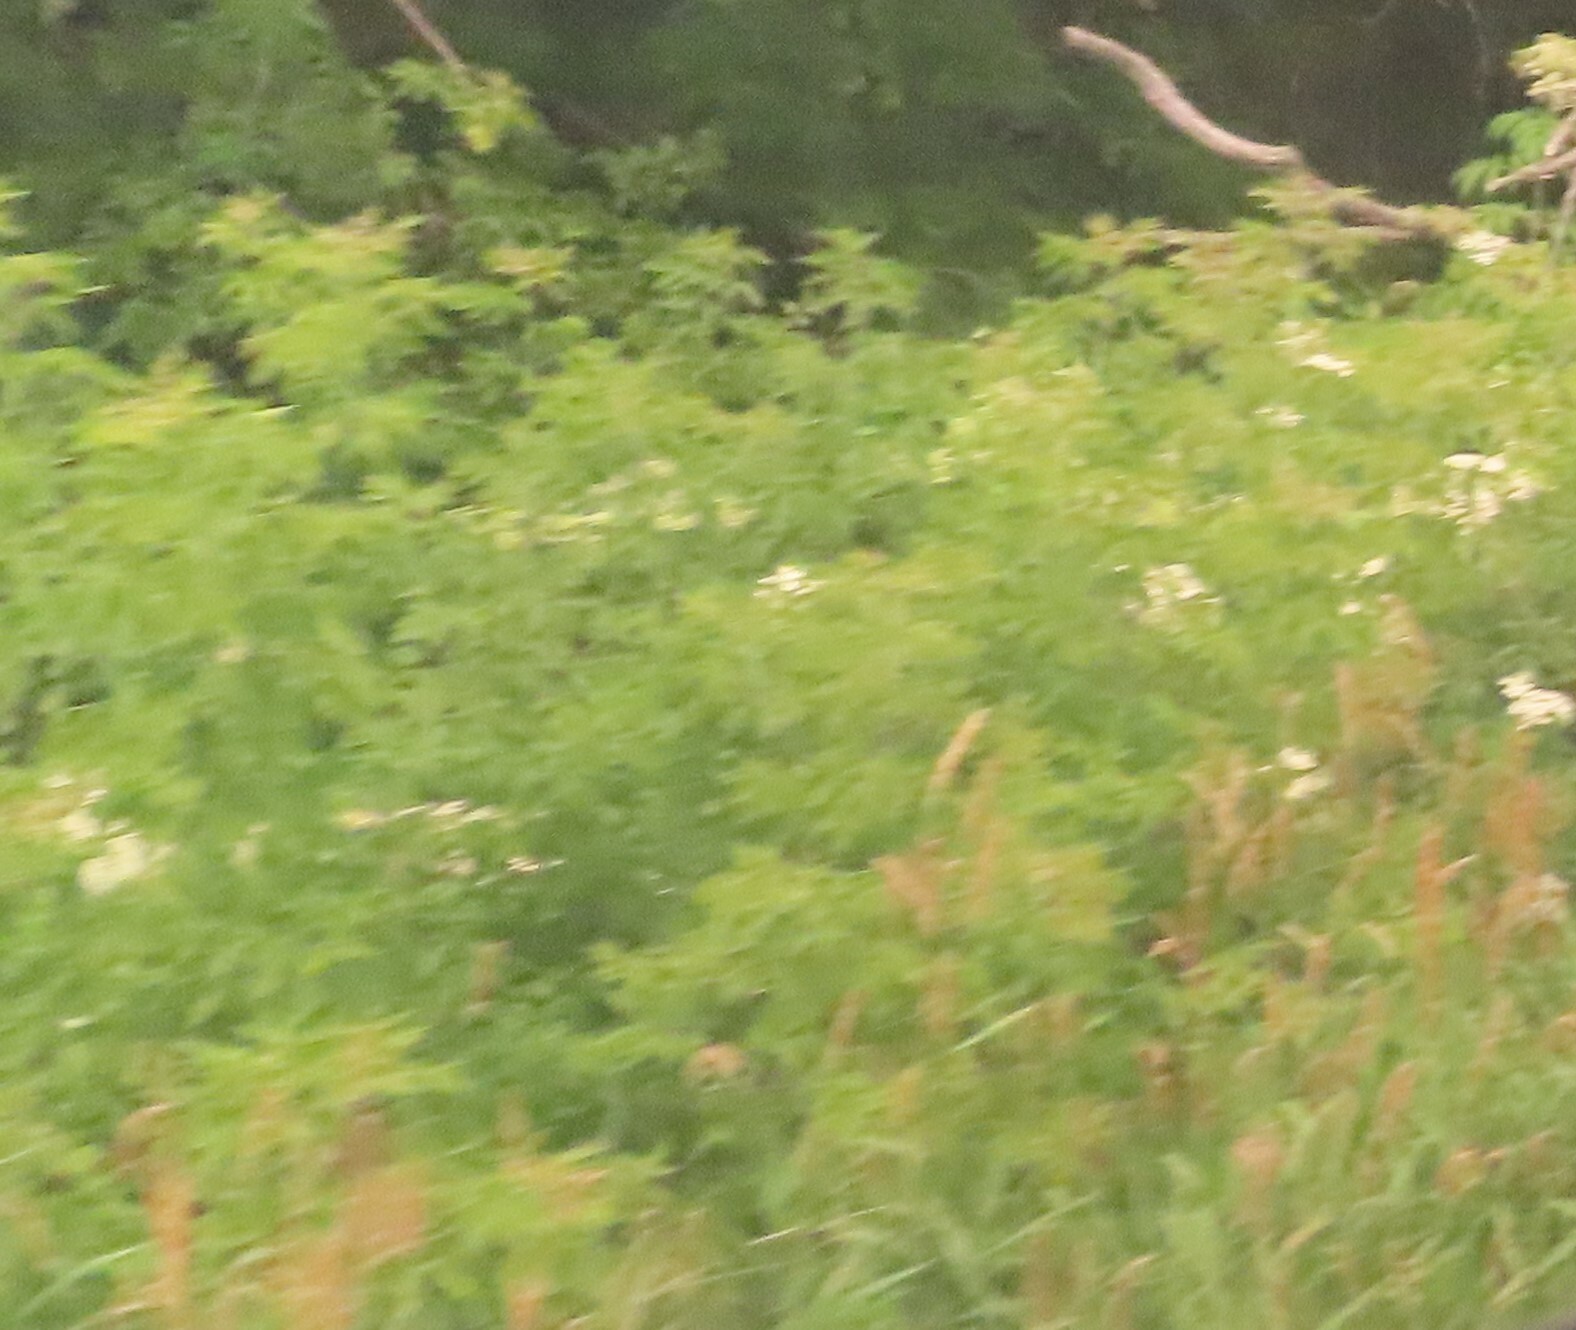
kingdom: Plantae
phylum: Tracheophyta
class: Magnoliopsida
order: Sapindales
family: Sapindaceae
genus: Acer
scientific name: Acer negundo
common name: Ashleaf maple
